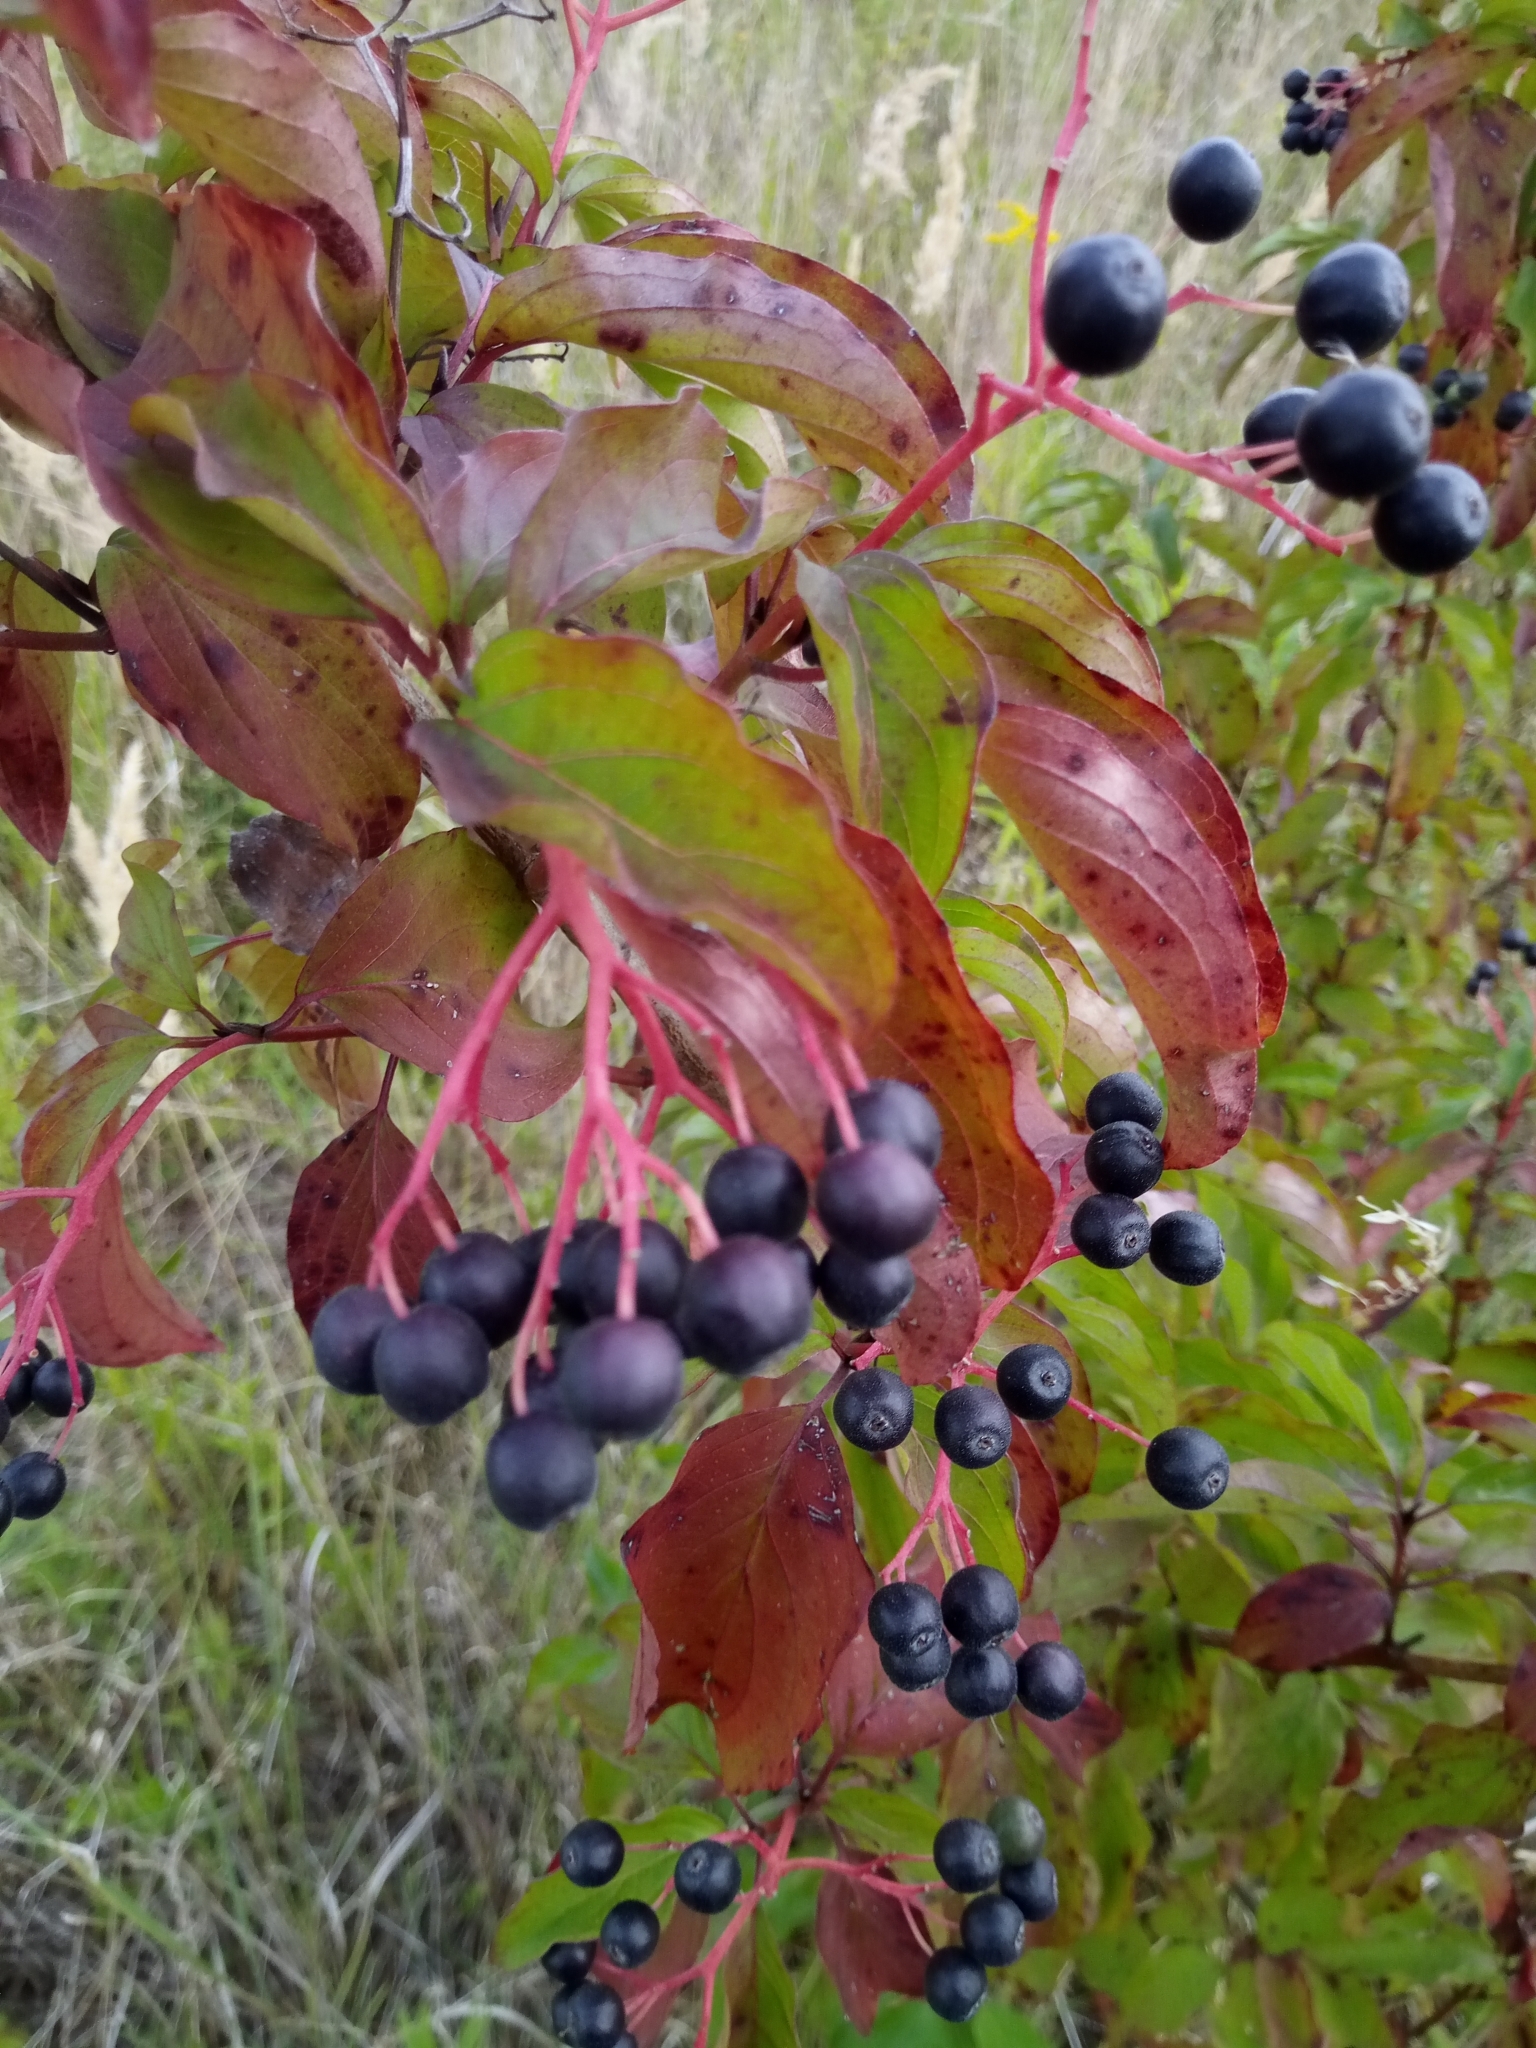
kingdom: Plantae
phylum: Tracheophyta
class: Magnoliopsida
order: Cornales
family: Cornaceae
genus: Cornus
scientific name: Cornus sanguinea
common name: Dogwood
